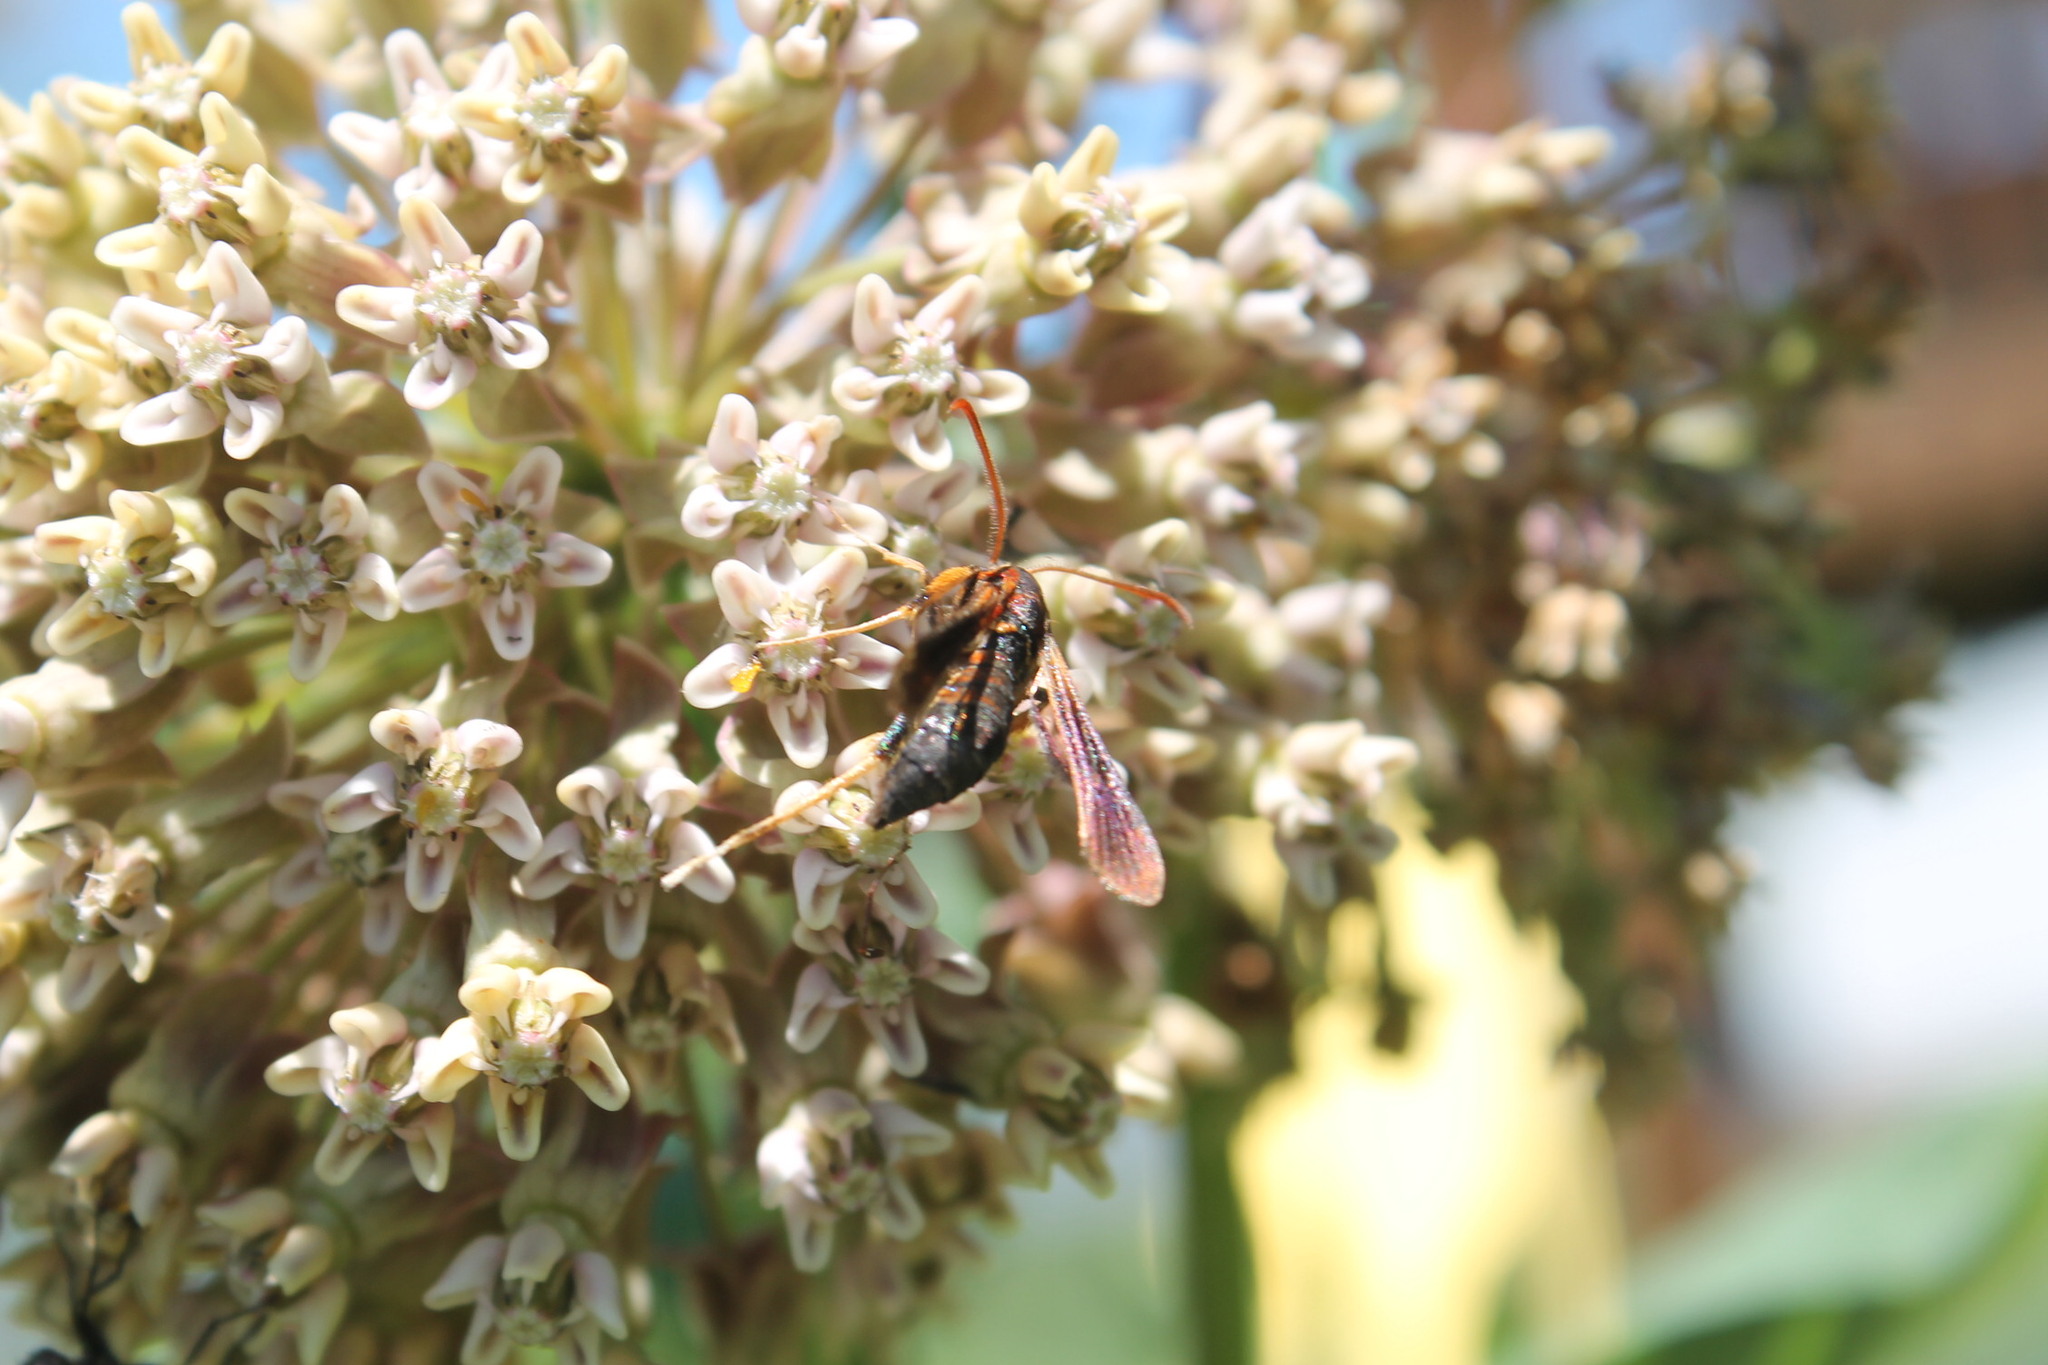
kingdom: Animalia
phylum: Arthropoda
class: Insecta
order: Lepidoptera
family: Sesiidae
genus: Podosesia
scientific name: Podosesia syringae
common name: Lilac borer moth
